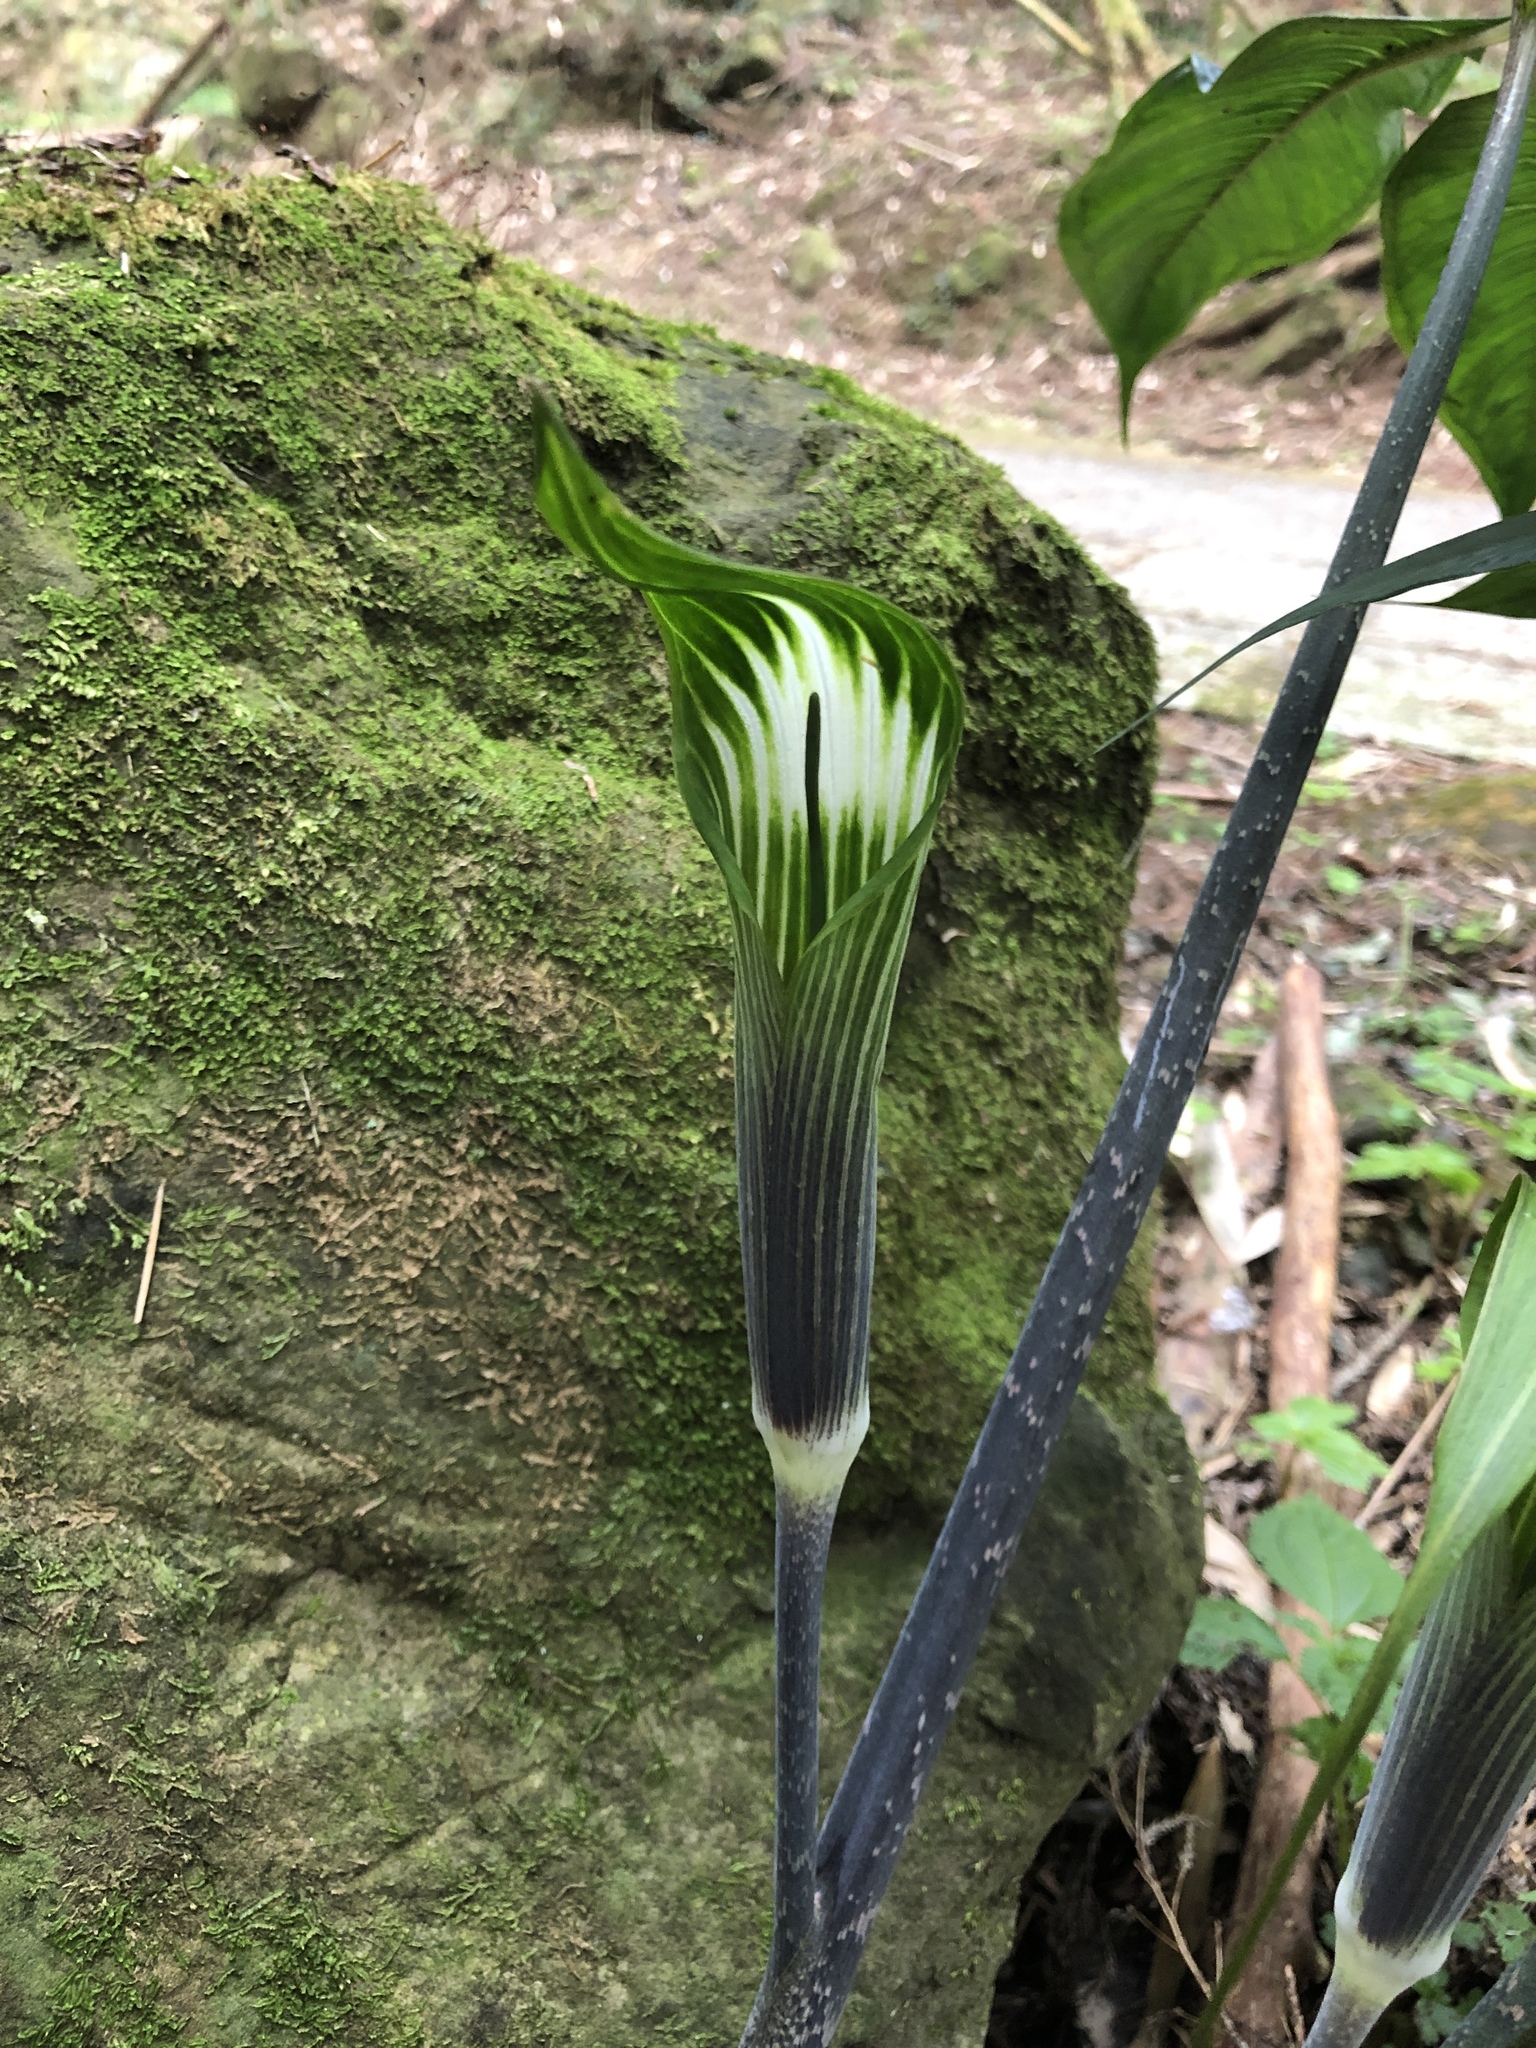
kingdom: Plantae
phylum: Tracheophyta
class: Liliopsida
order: Alismatales
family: Araceae
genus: Arisaema
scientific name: Arisaema formosanum
